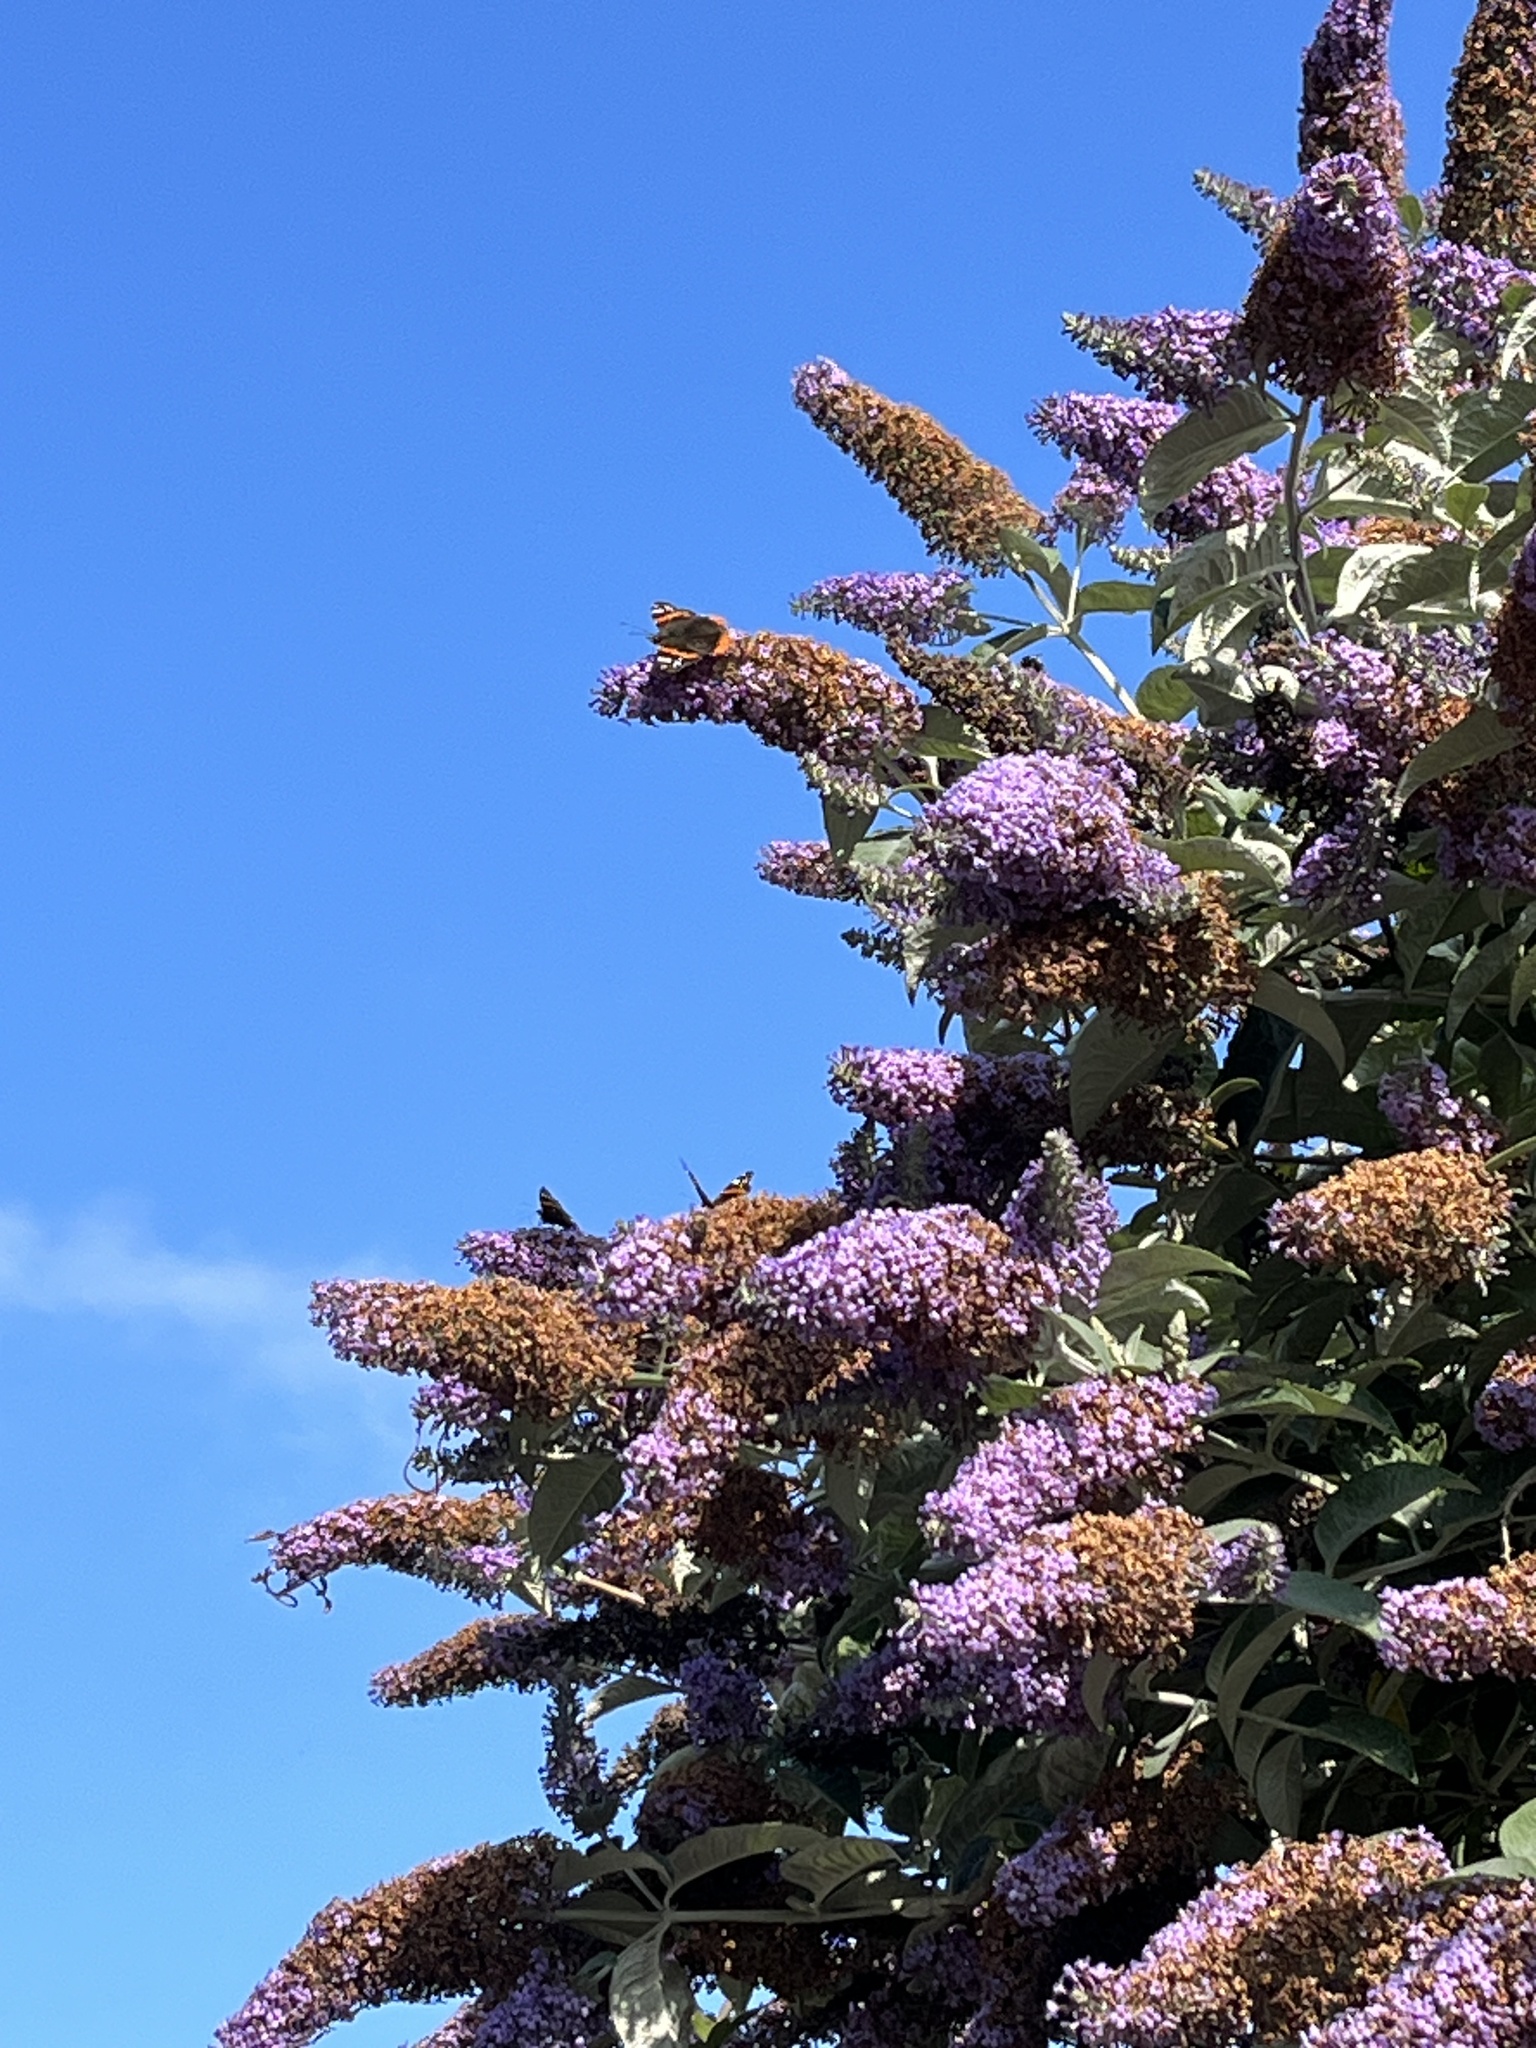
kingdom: Animalia
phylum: Arthropoda
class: Insecta
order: Lepidoptera
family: Nymphalidae
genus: Vanessa
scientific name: Vanessa atalanta
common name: Red admiral
